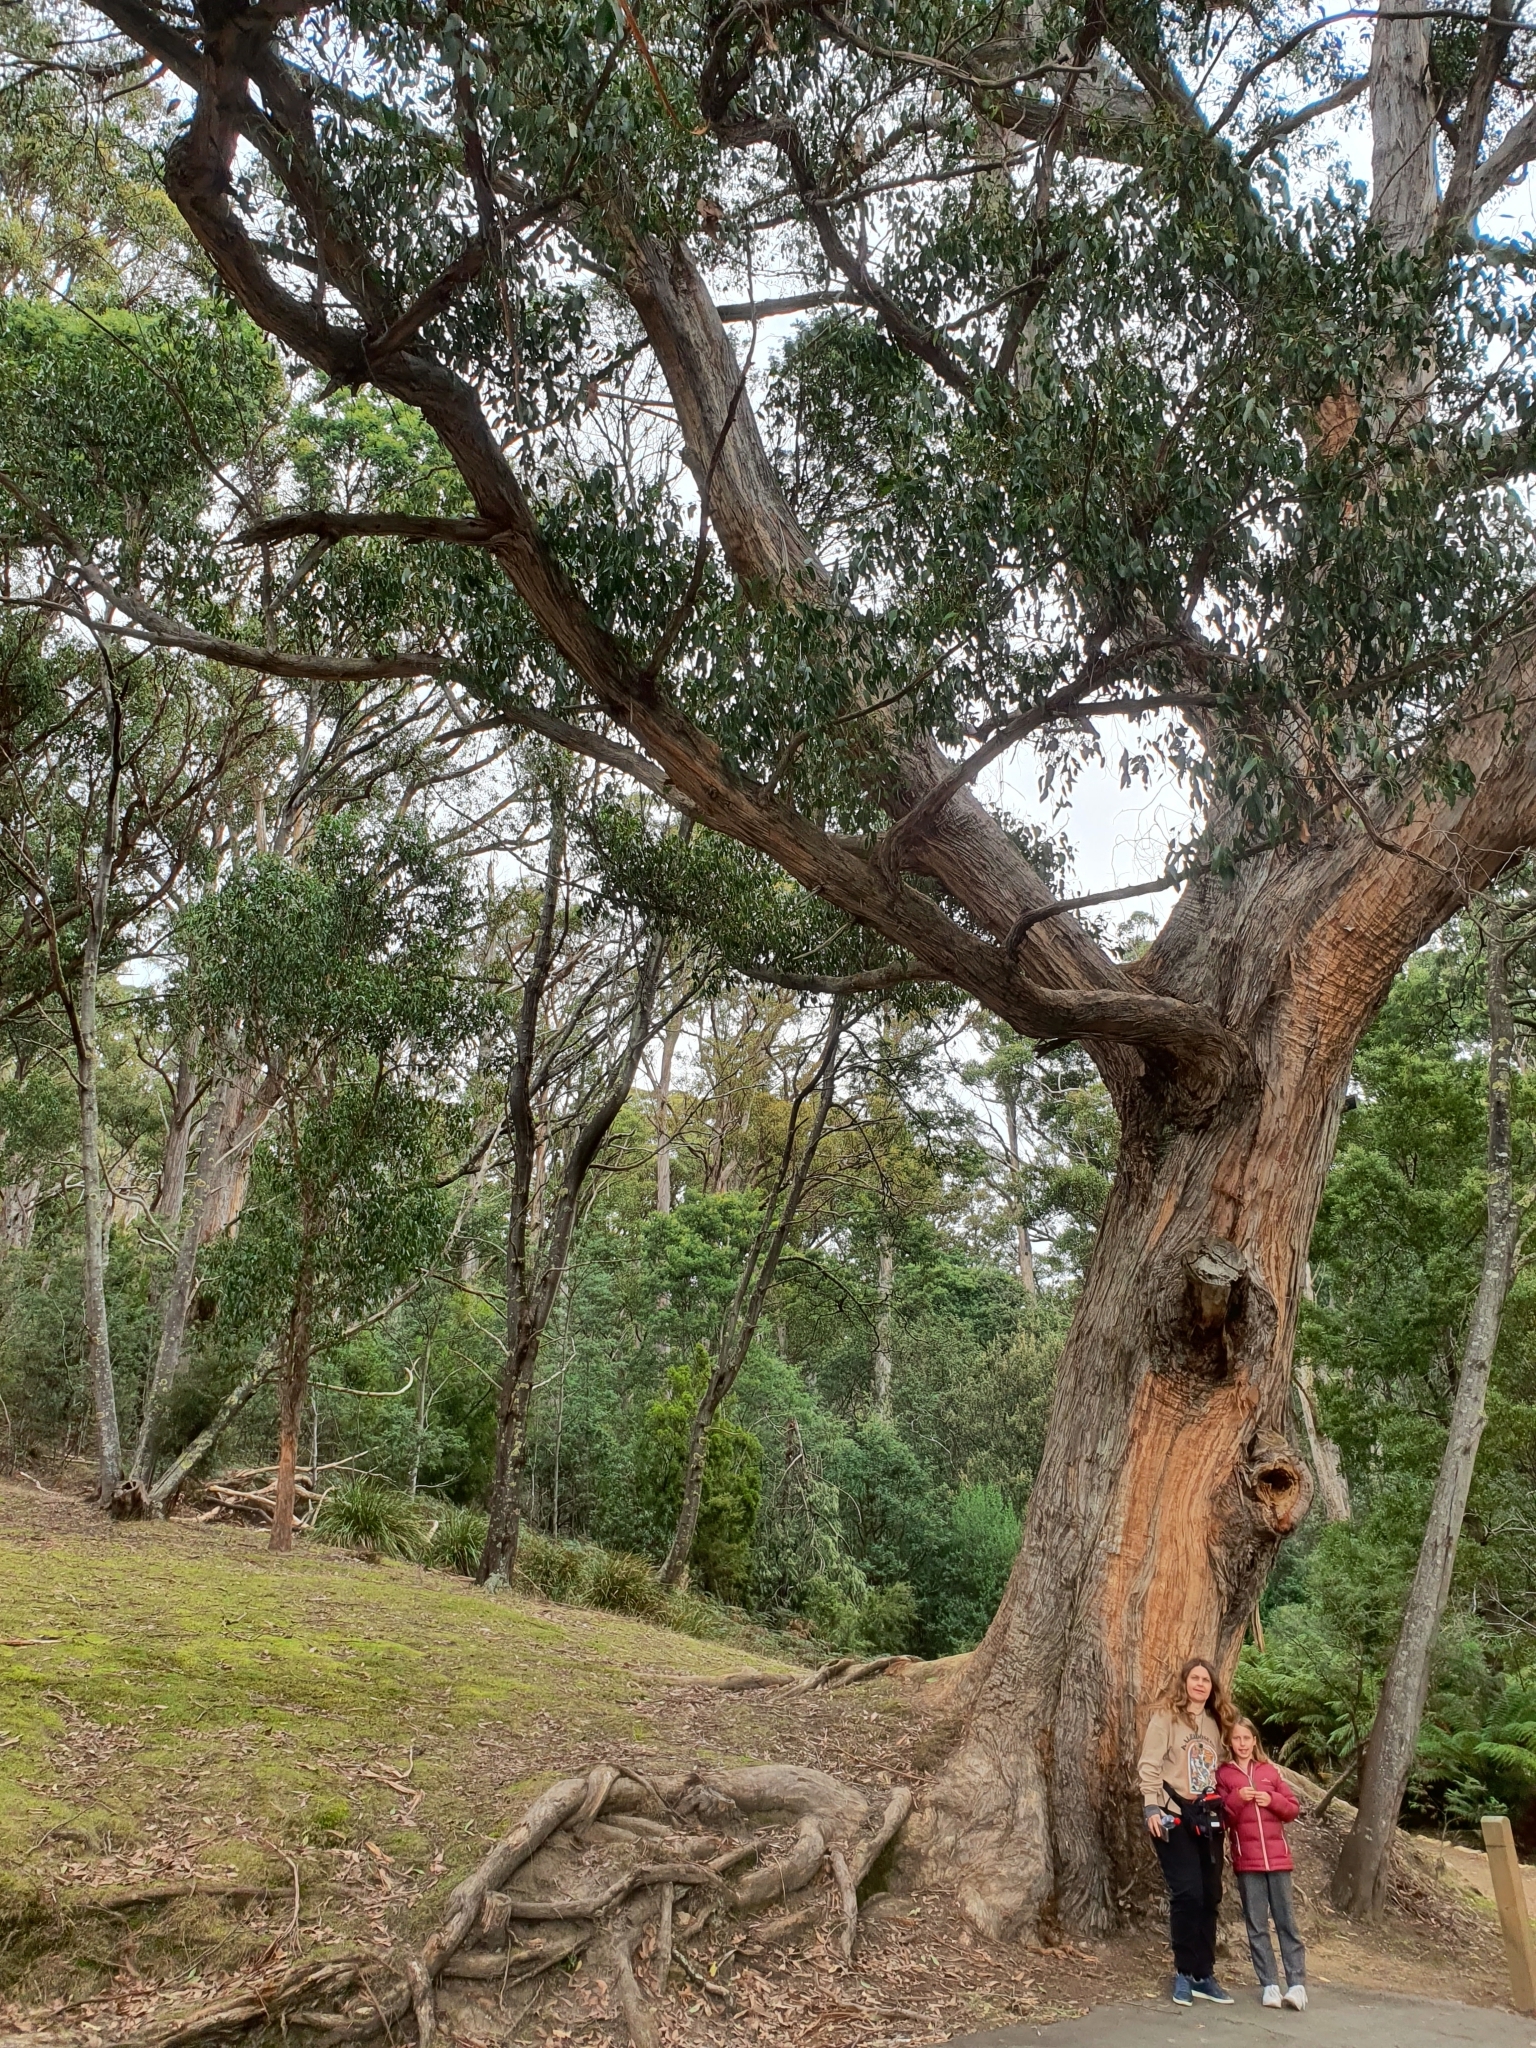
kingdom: Plantae
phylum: Tracheophyta
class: Magnoliopsida
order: Myrtales
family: Myrtaceae
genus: Eucalyptus
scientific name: Eucalyptus obliqua
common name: Messmate stringybark
